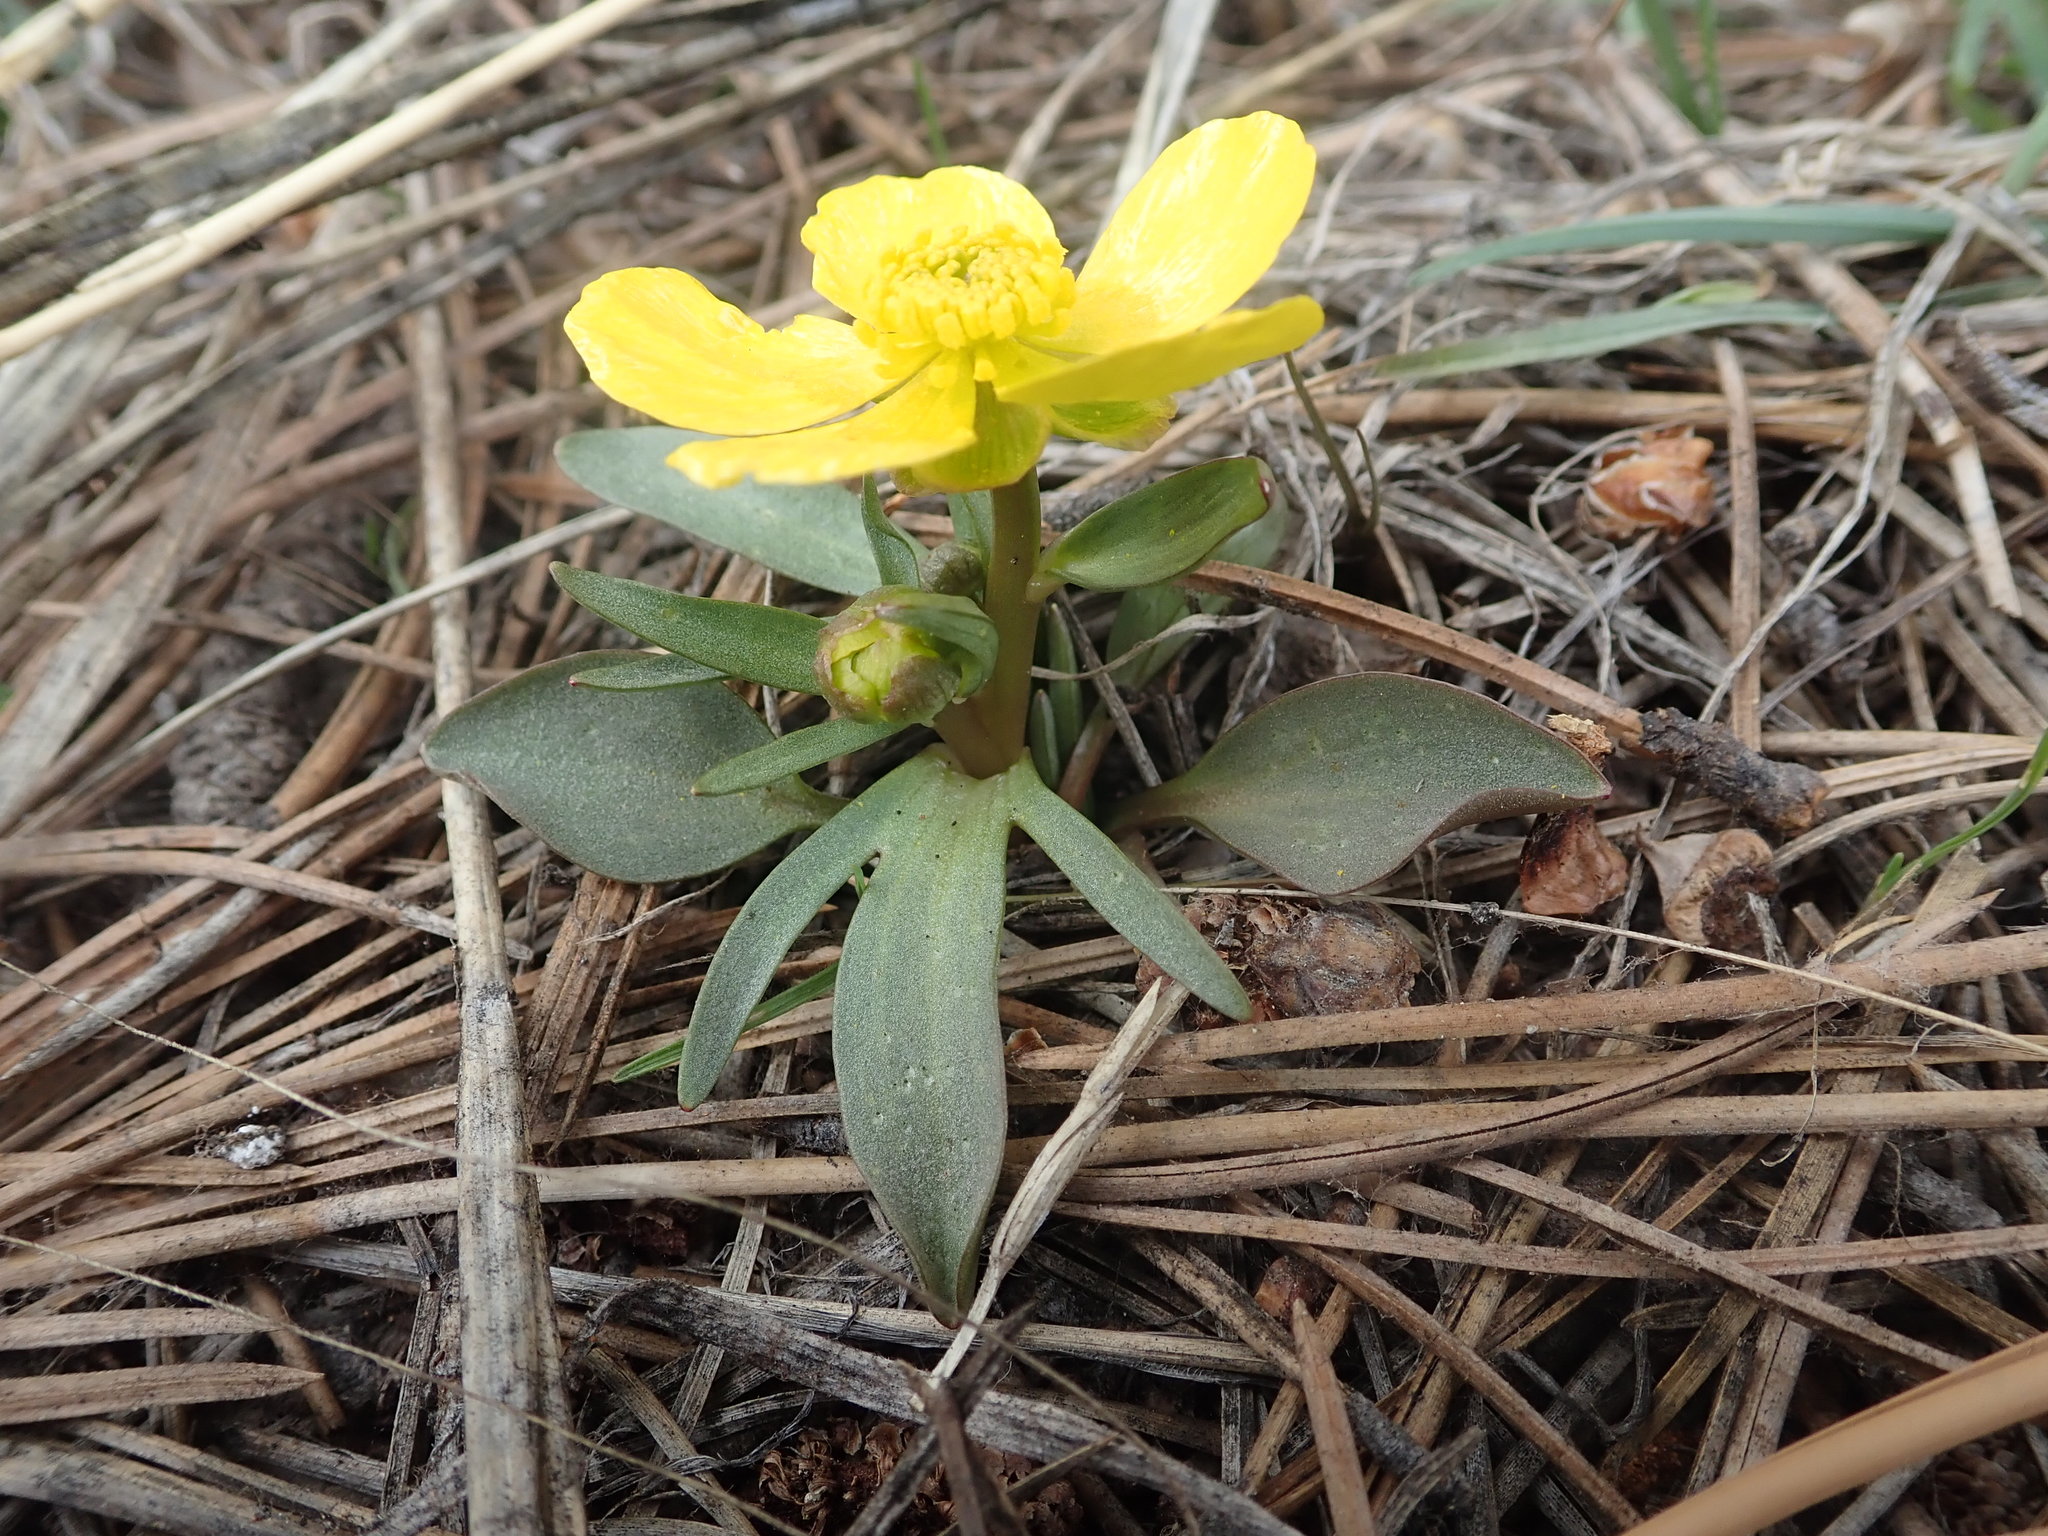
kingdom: Plantae
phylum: Tracheophyta
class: Magnoliopsida
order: Ranunculales
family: Ranunculaceae
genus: Ranunculus
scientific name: Ranunculus glaberrimus
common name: Sagebrush buttercup
